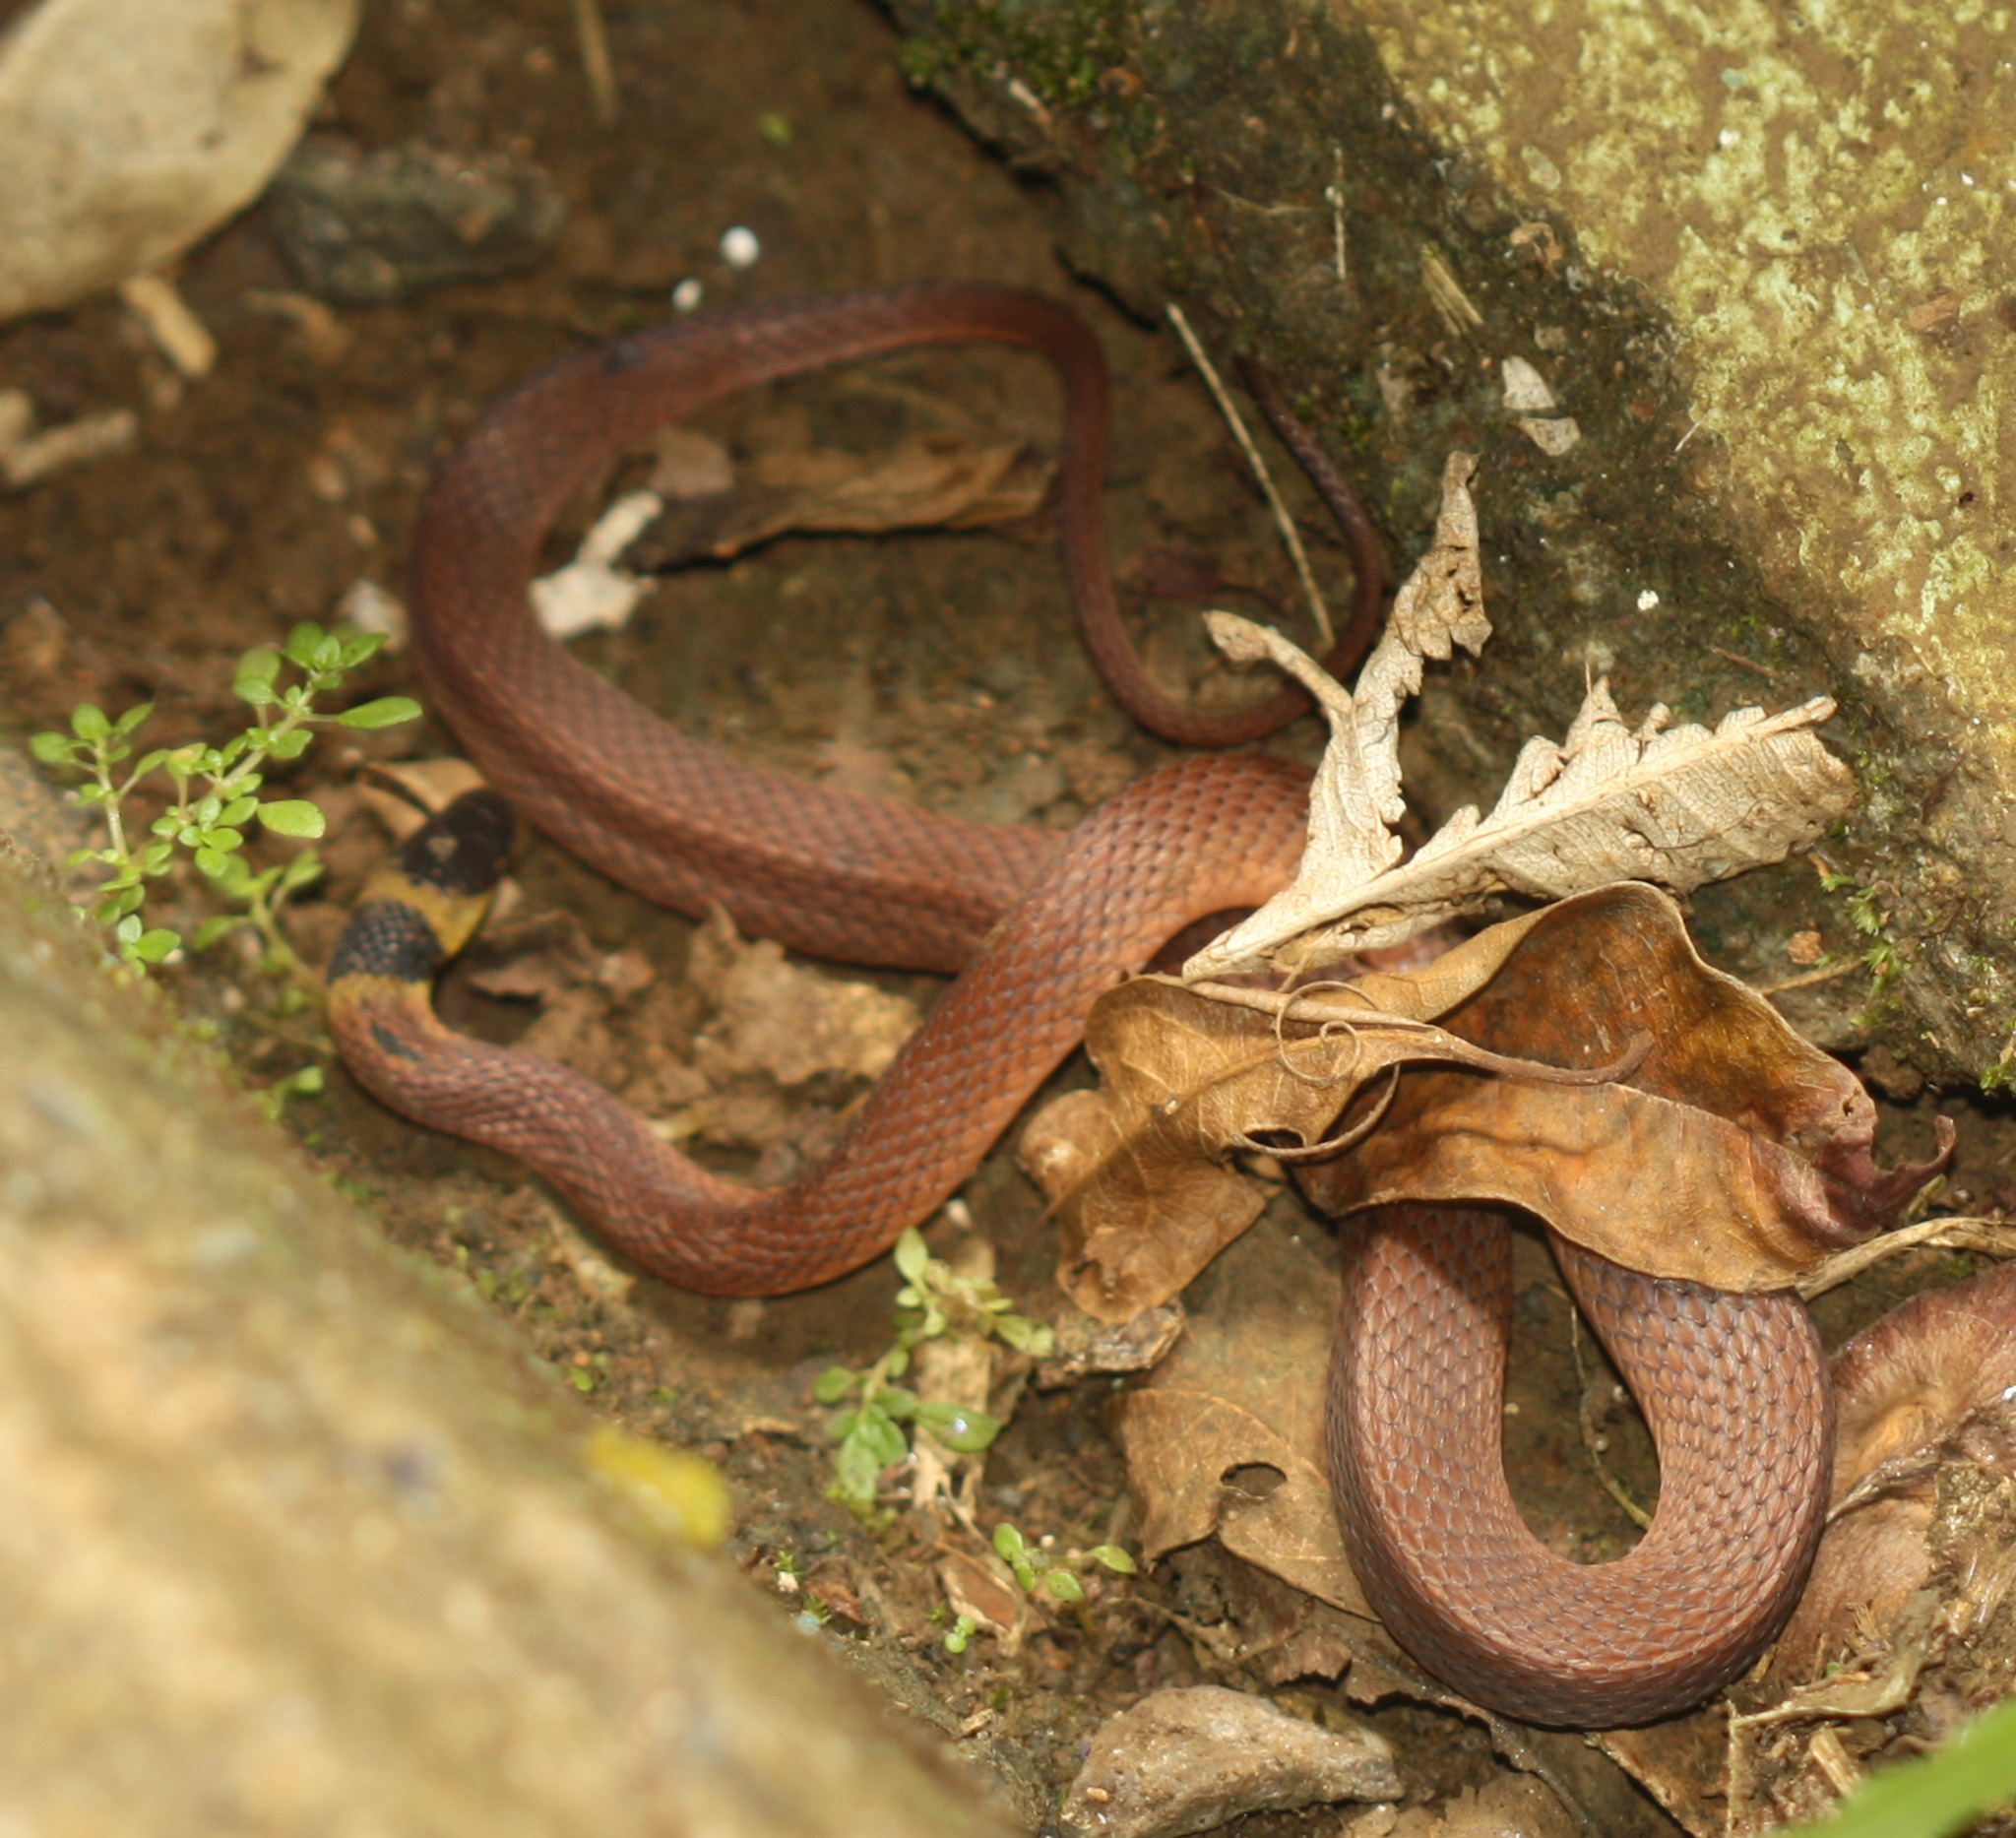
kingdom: Animalia
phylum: Chordata
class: Squamata
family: Colubridae
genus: Ninia
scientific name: Ninia sebae
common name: Redback coffee snake
